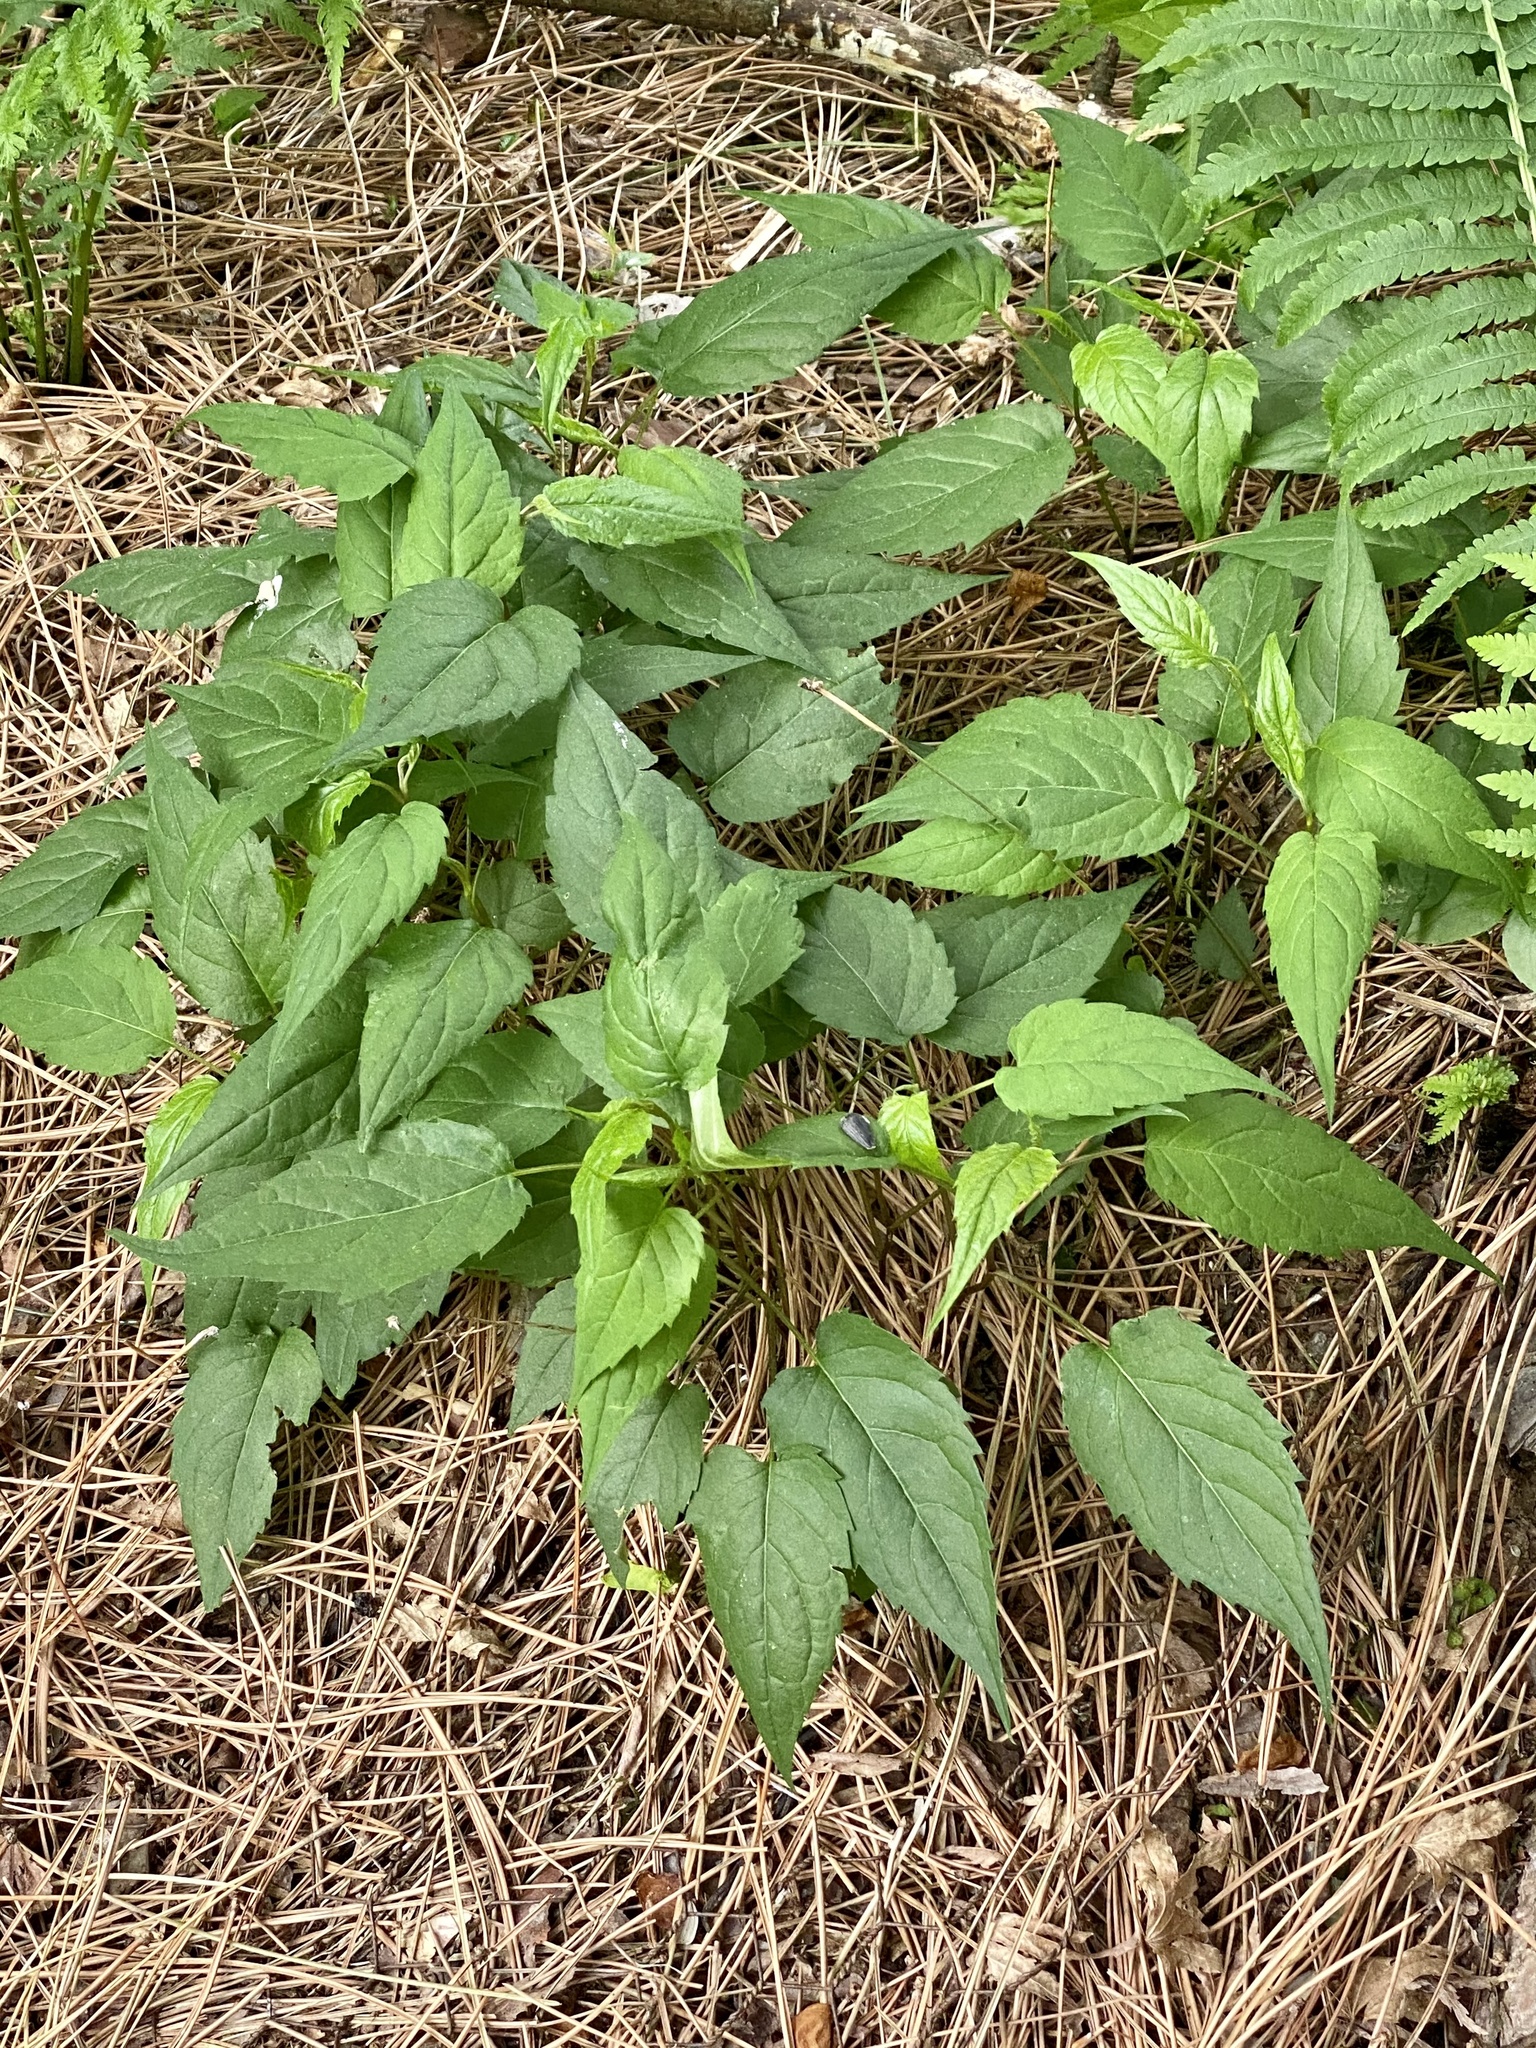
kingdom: Plantae
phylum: Tracheophyta
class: Magnoliopsida
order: Asterales
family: Asteraceae
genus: Eurybia
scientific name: Eurybia divaricata
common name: White wood aster
